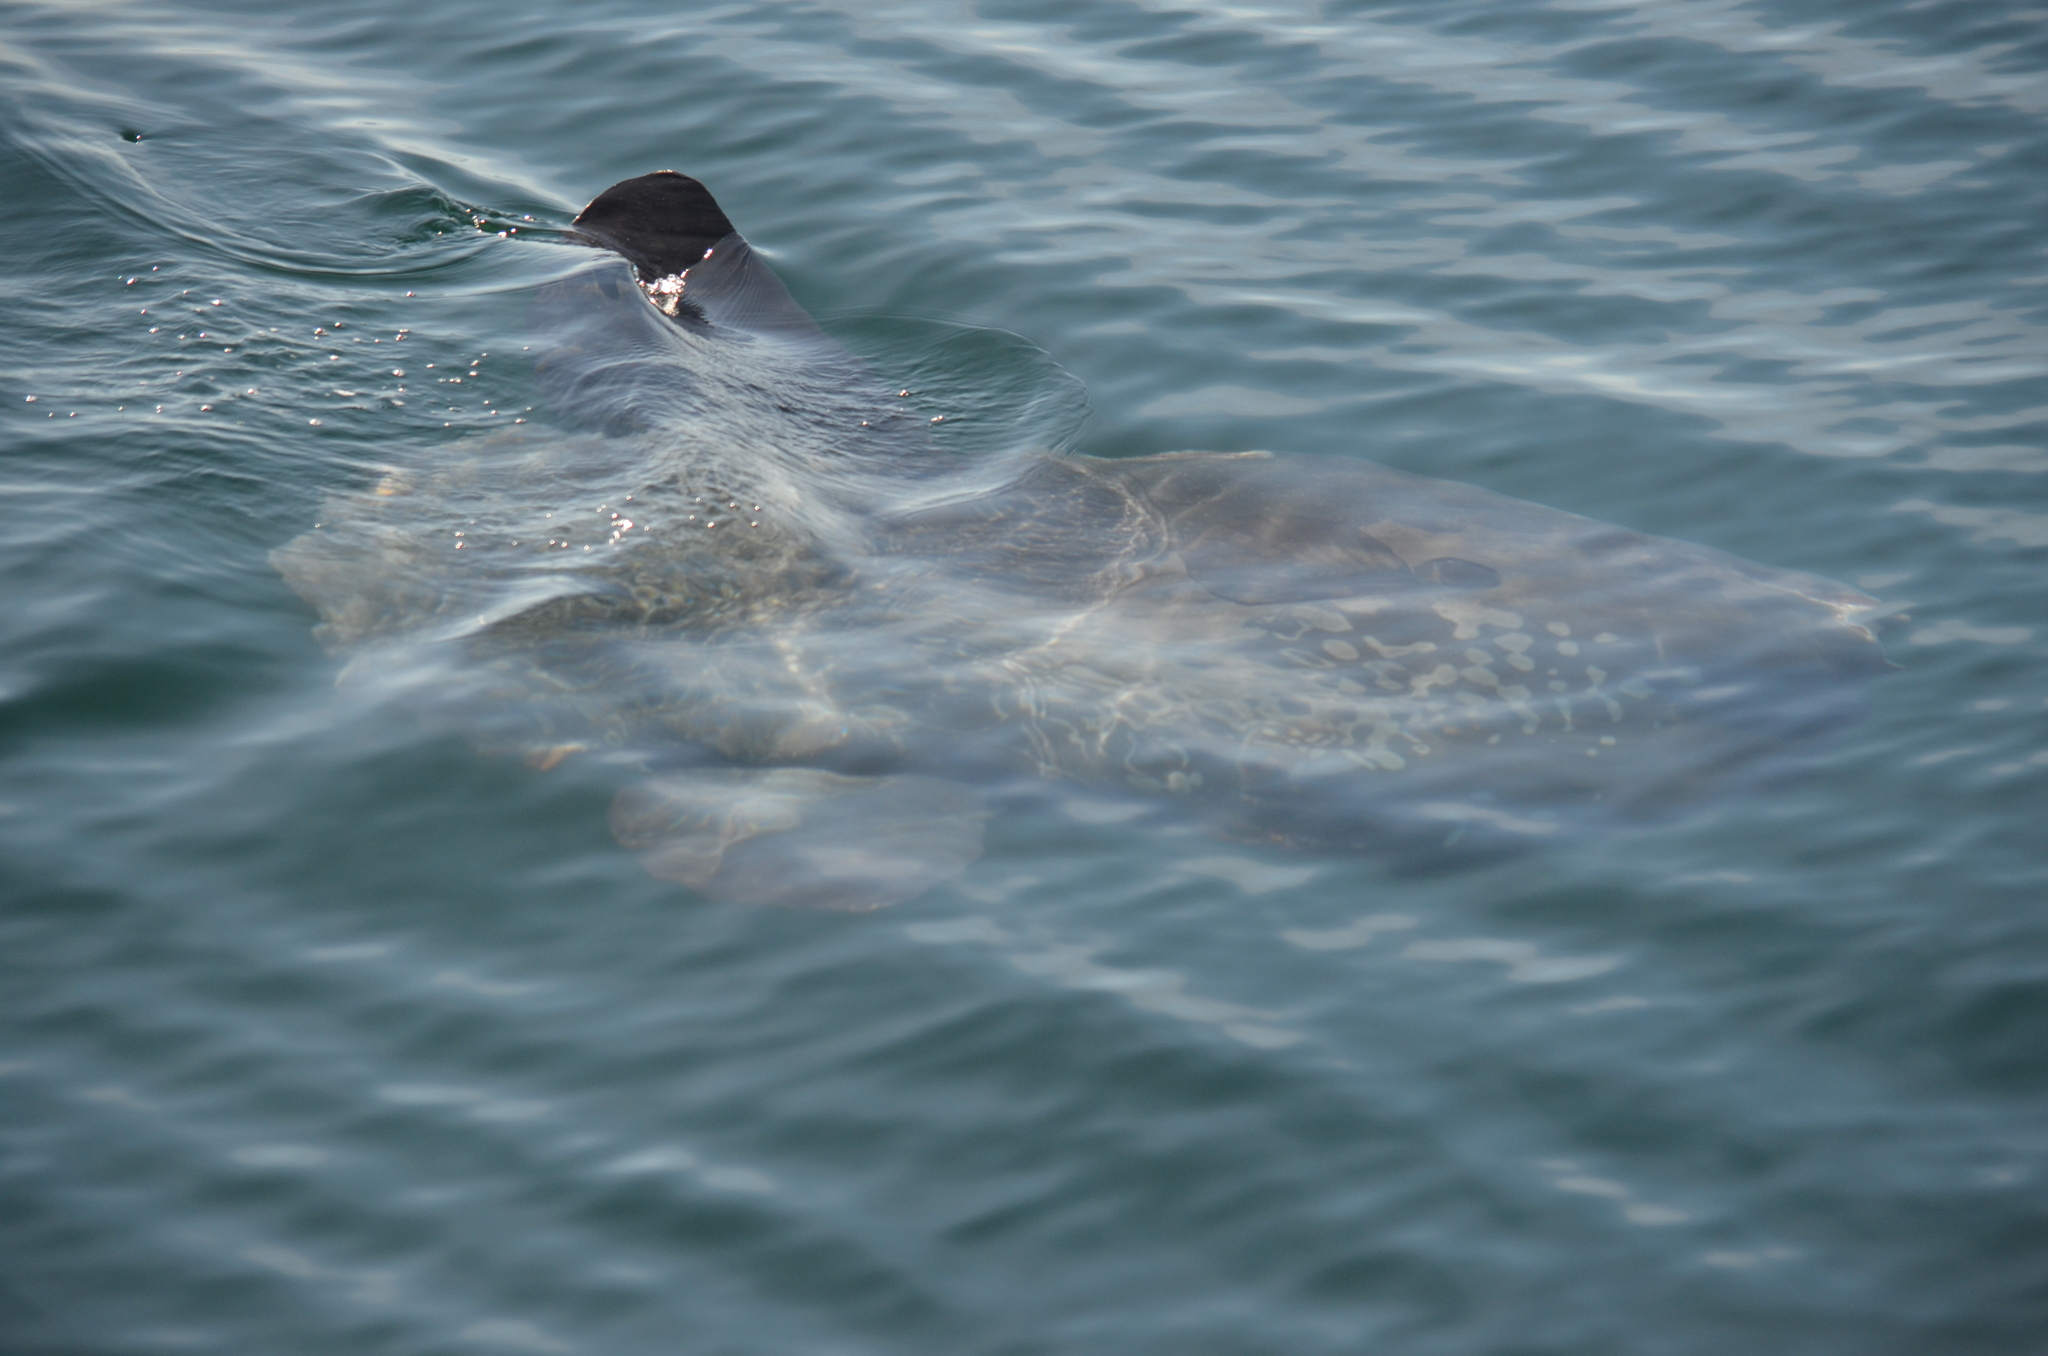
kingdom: Animalia
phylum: Chordata
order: Tetraodontiformes
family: Molidae
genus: Mola
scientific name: Mola mola
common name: Ocean sunfish
